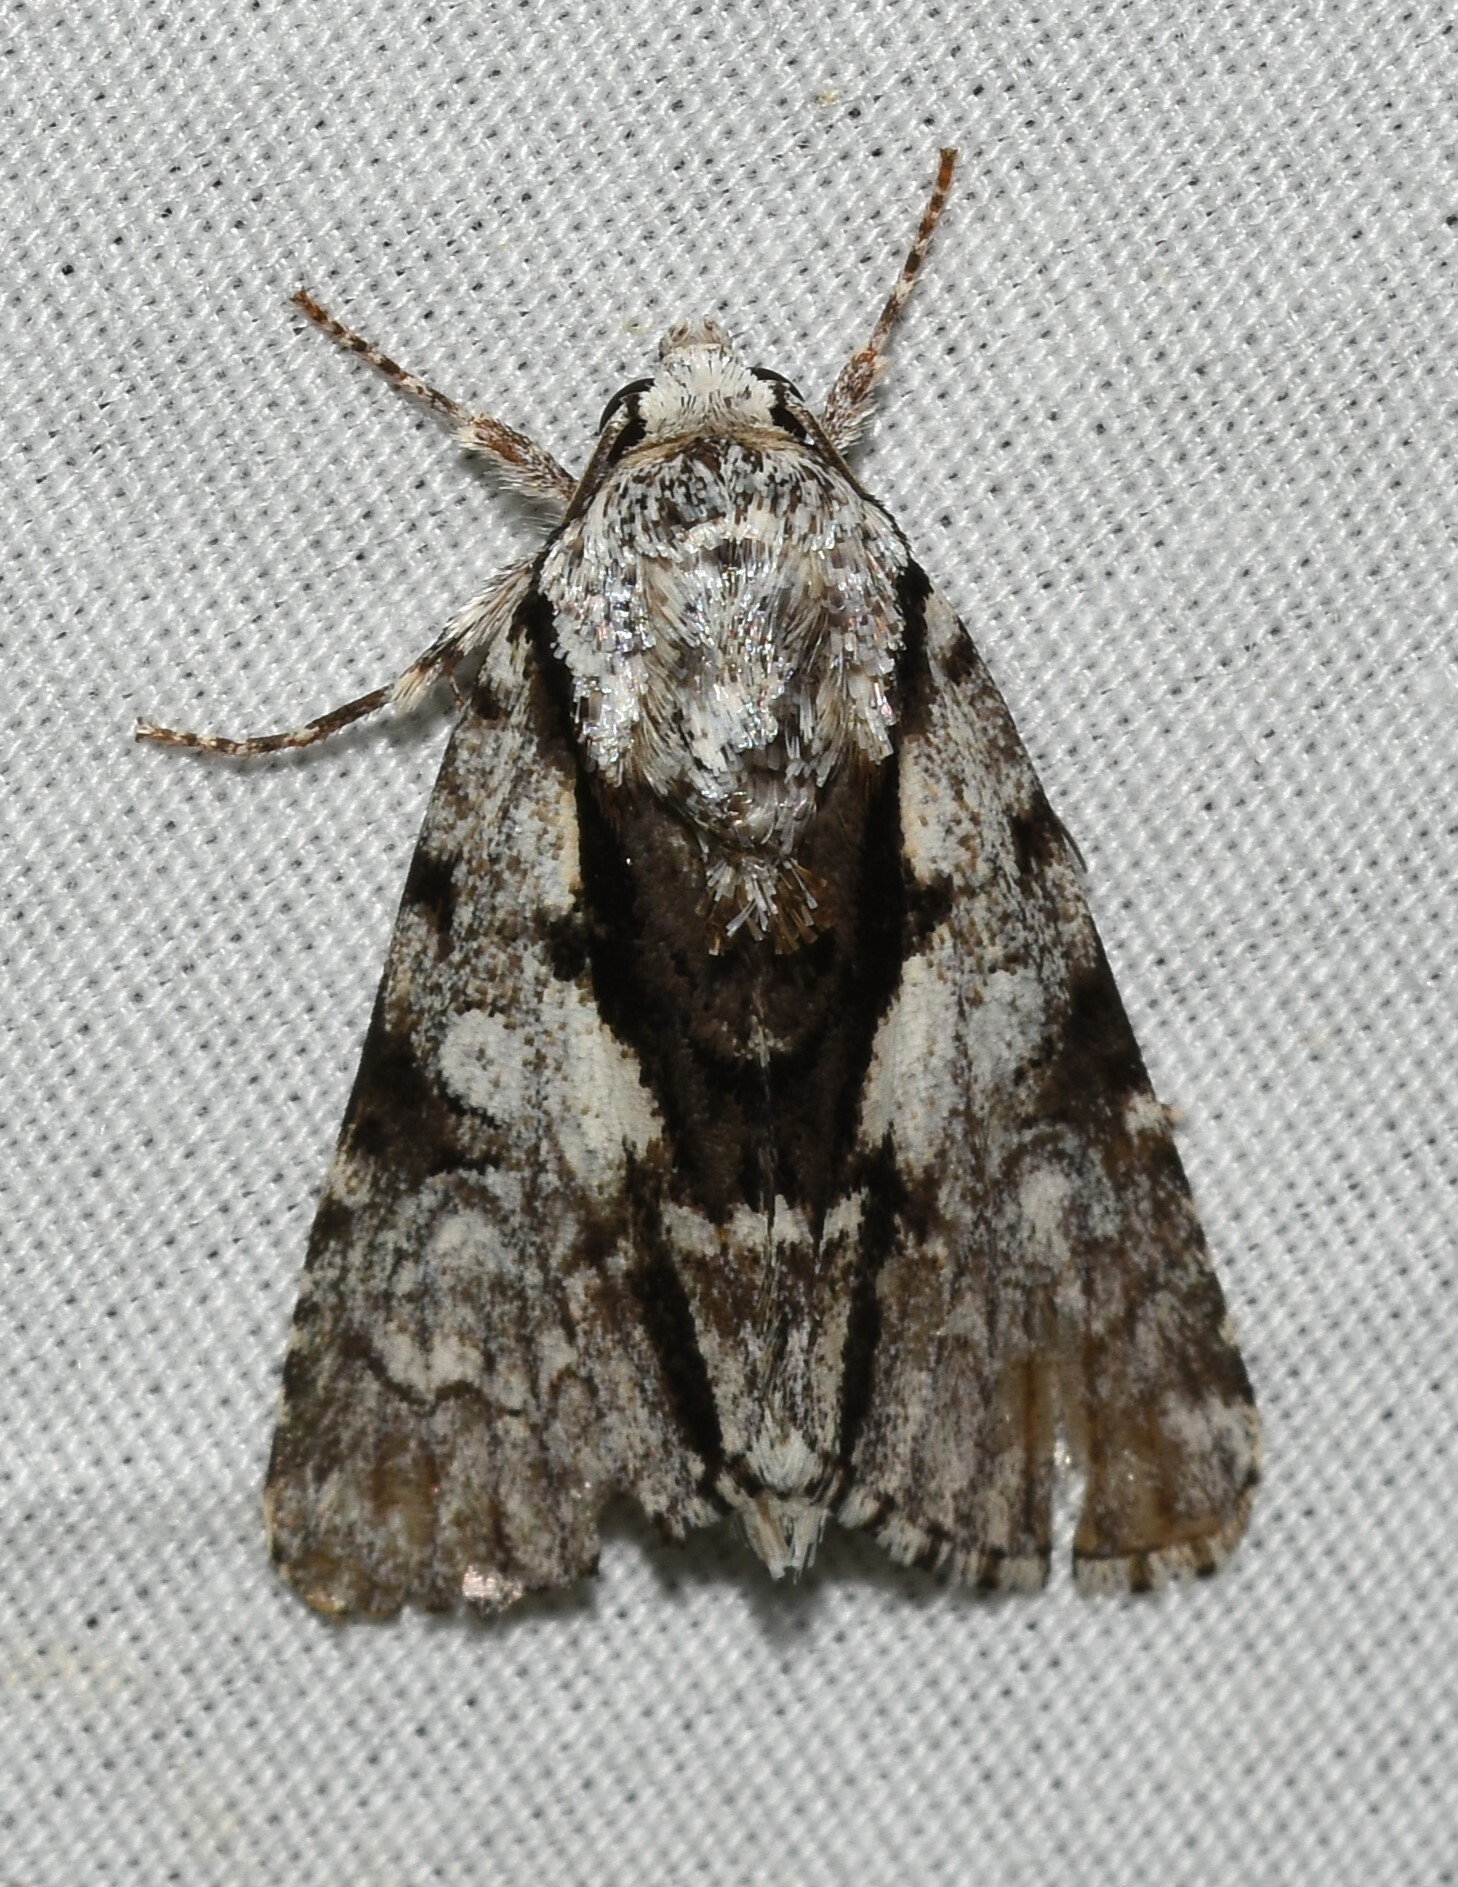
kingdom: Animalia
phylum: Arthropoda
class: Insecta
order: Lepidoptera
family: Noctuidae
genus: Acronicta
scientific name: Acronicta funeralis
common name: Funerary dagger
